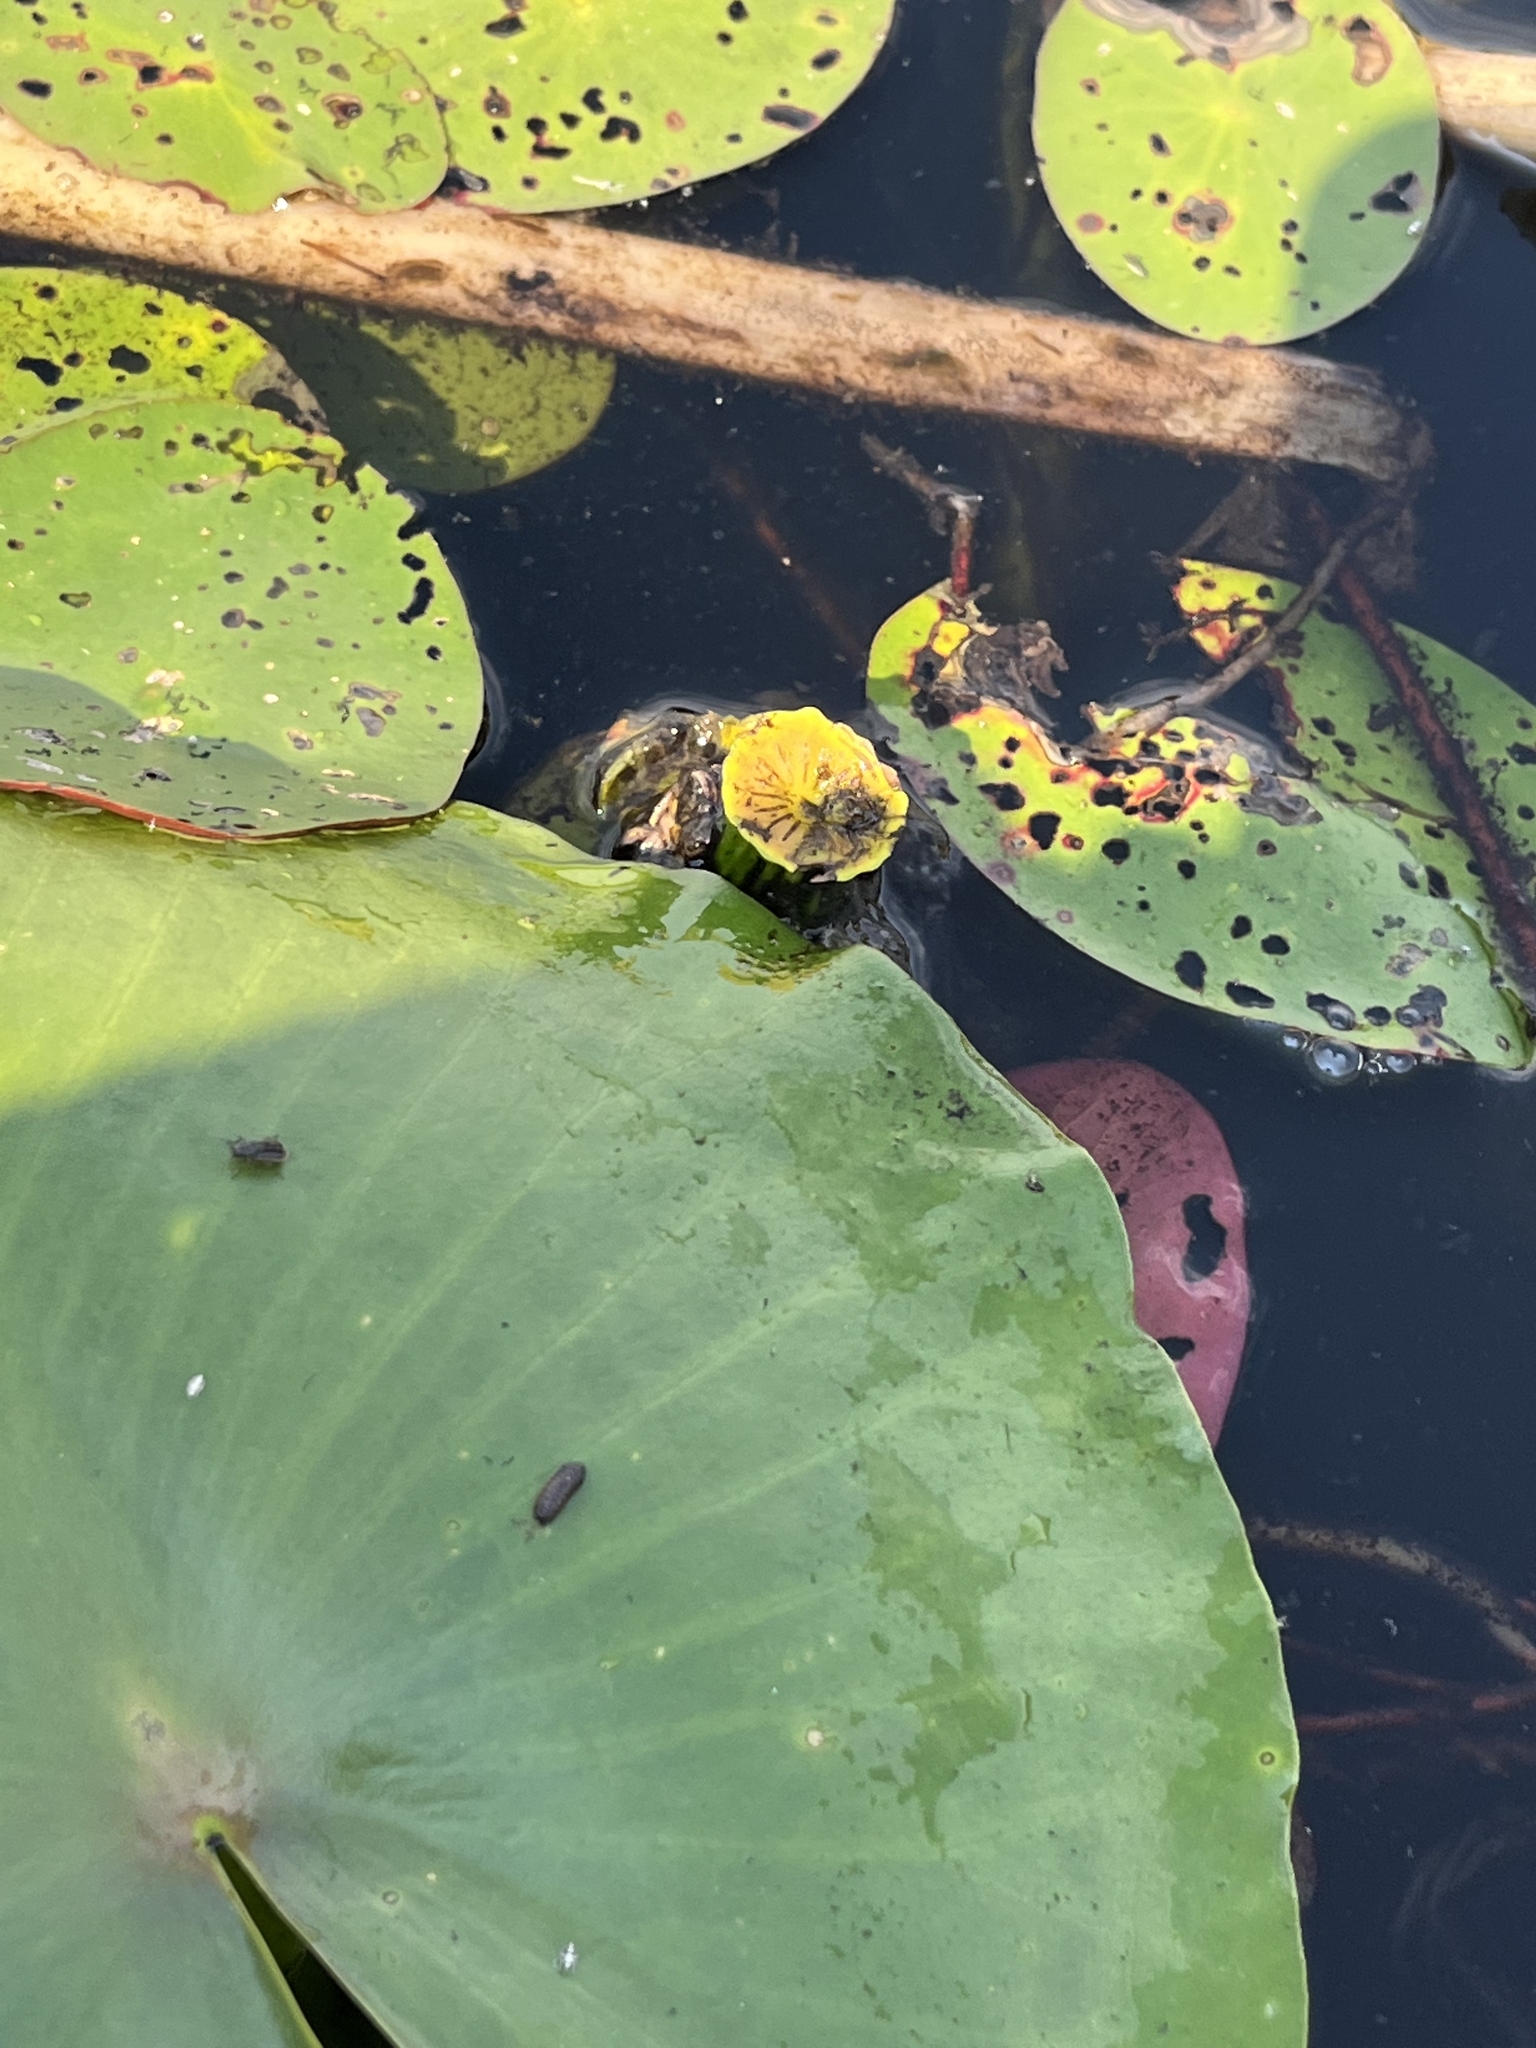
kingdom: Plantae
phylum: Tracheophyta
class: Magnoliopsida
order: Nymphaeales
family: Nymphaeaceae
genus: Nuphar
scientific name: Nuphar advena
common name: Spatter-dock
